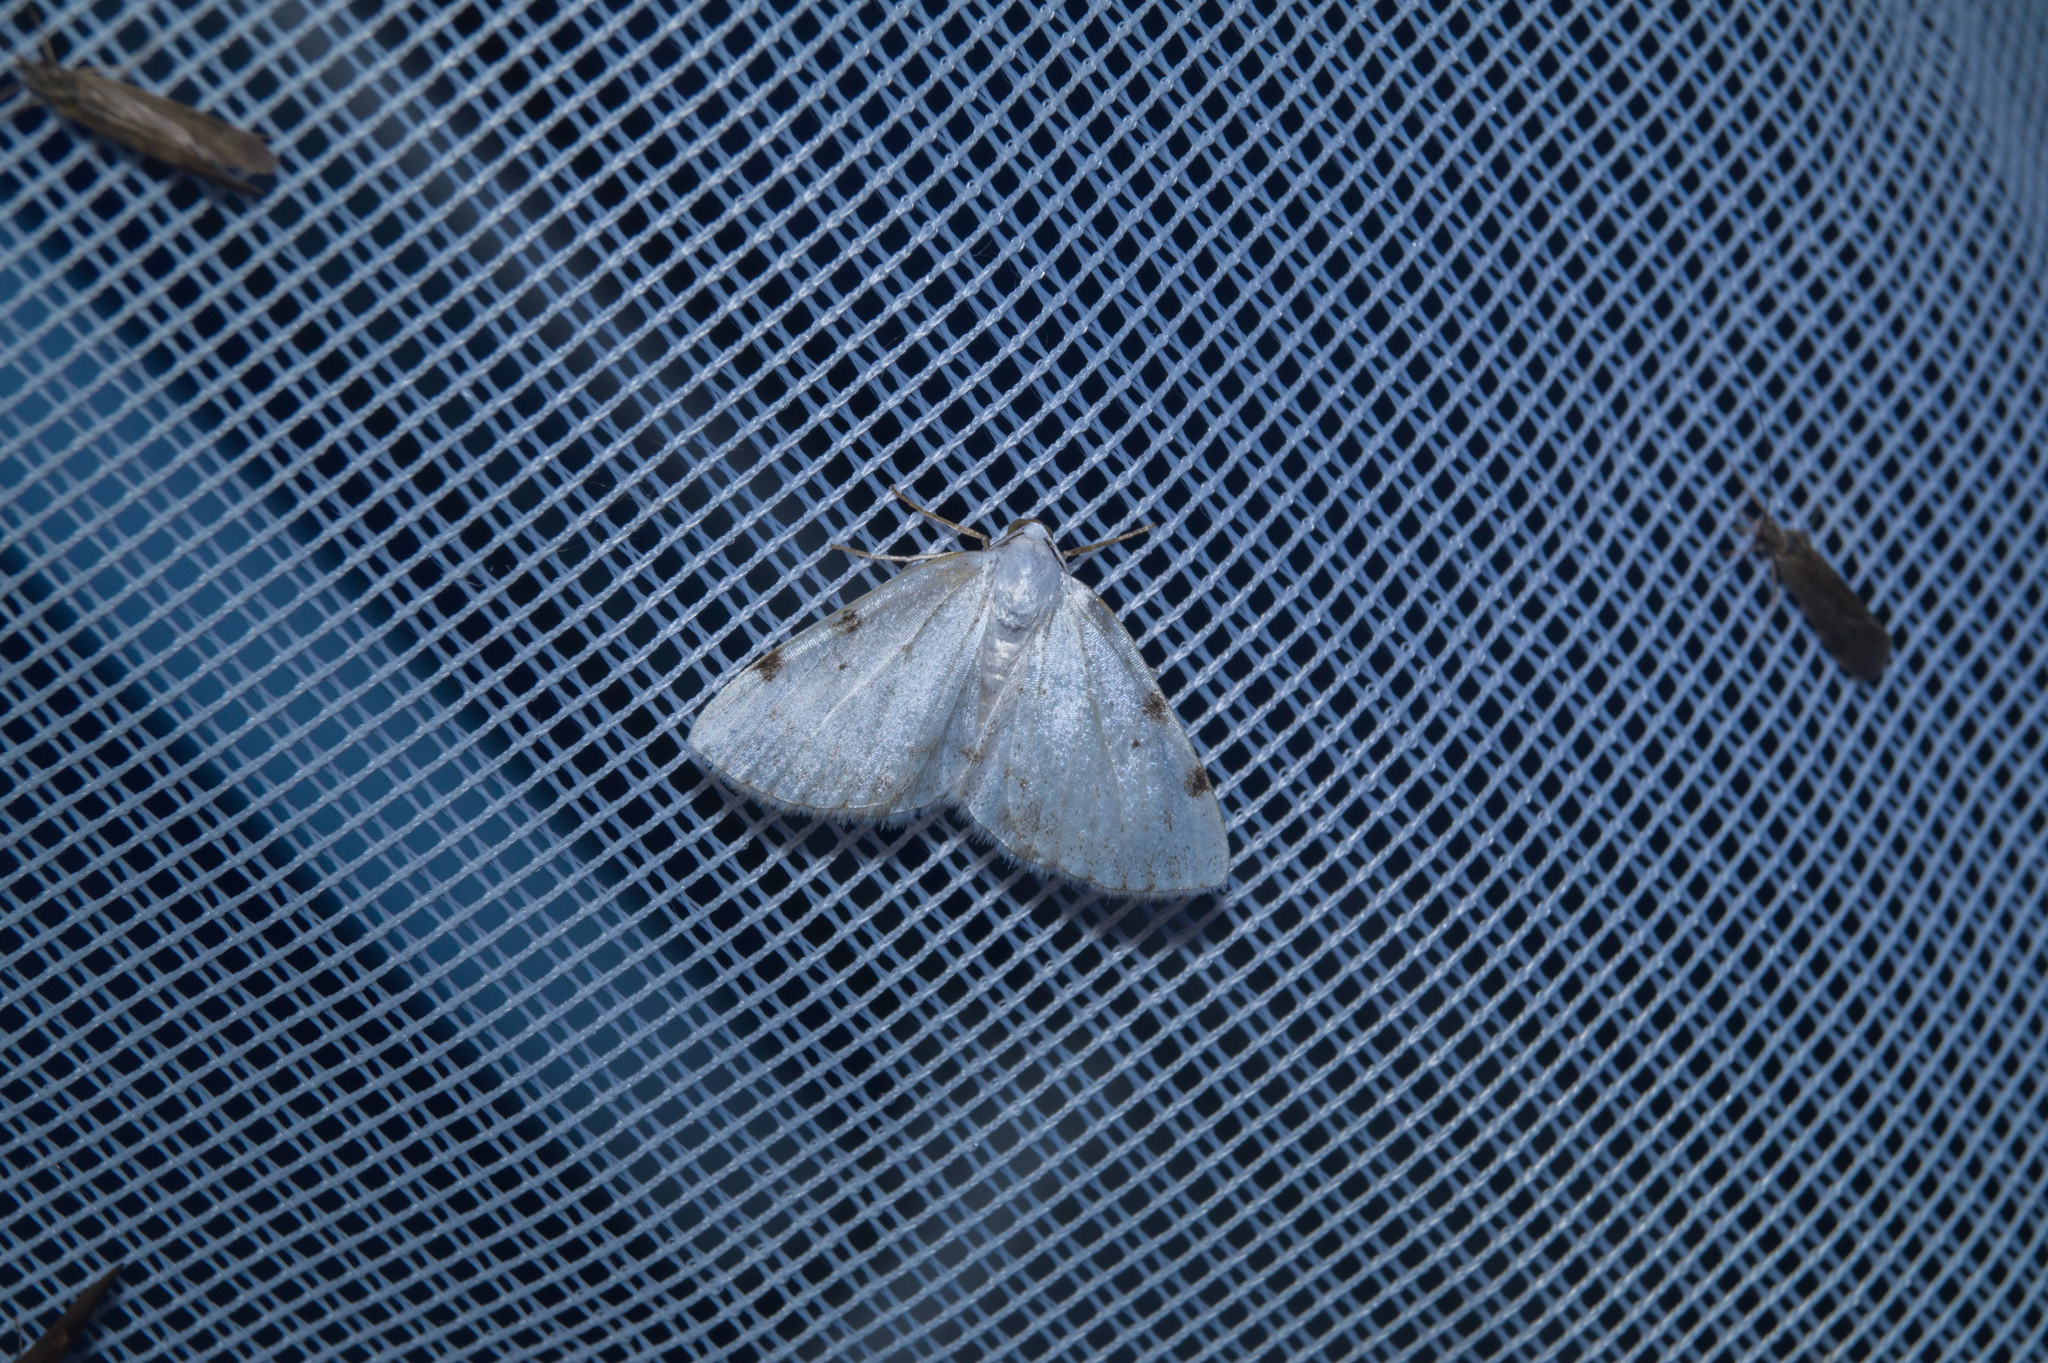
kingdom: Animalia
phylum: Arthropoda
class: Insecta
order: Lepidoptera
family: Geometridae
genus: Lomographa
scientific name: Lomographa bimaculata
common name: White-pinion spotted
